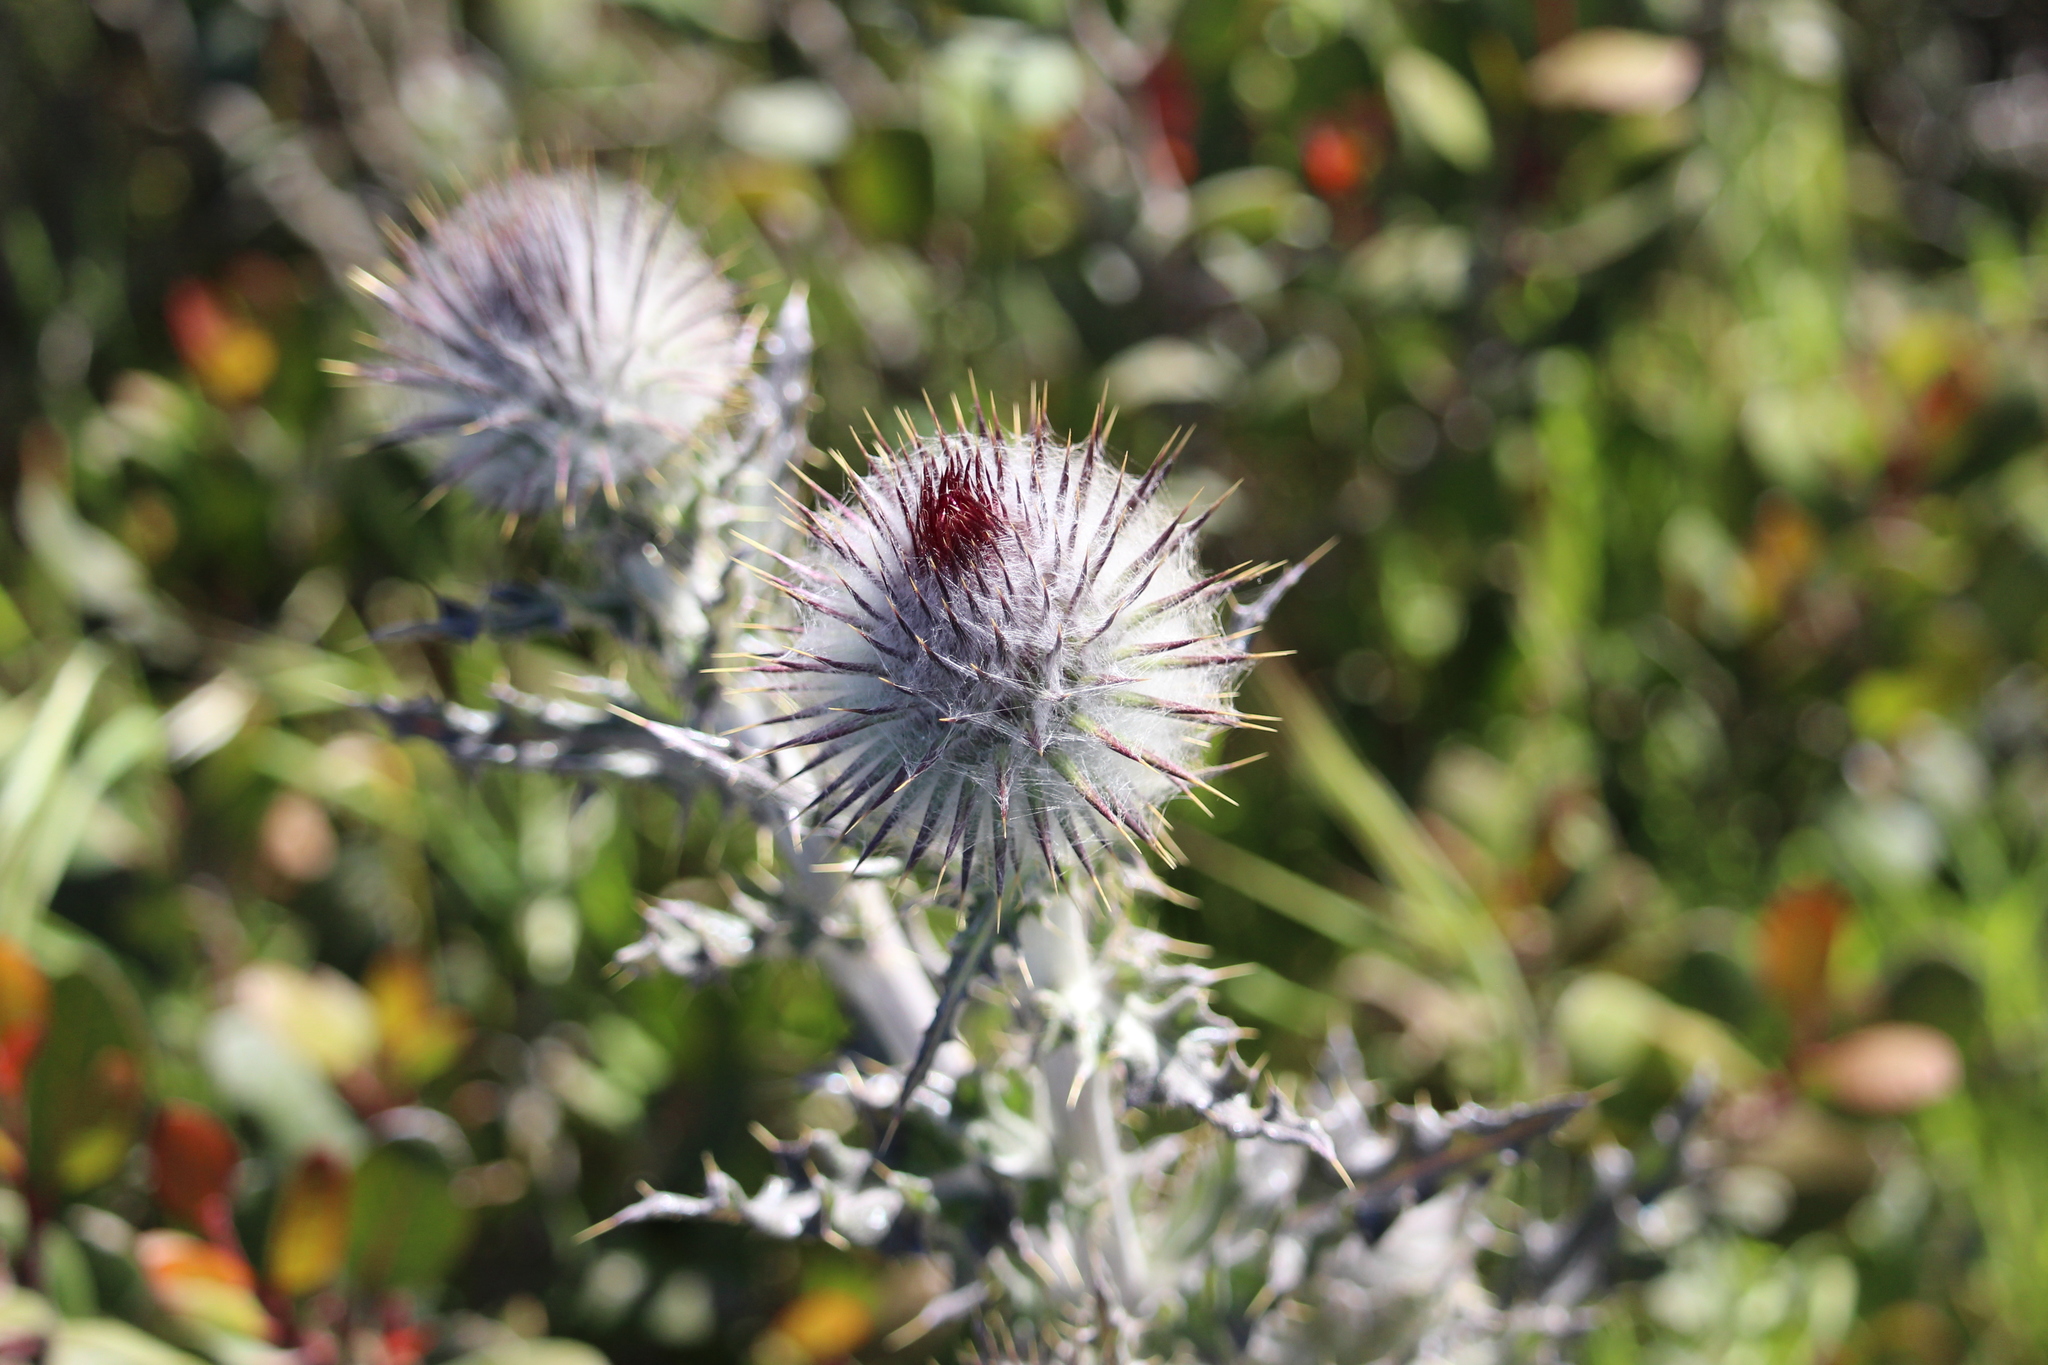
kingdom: Plantae
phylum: Tracheophyta
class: Magnoliopsida
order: Asterales
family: Asteraceae
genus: Cirsium
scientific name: Cirsium occidentale
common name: Western thistle
